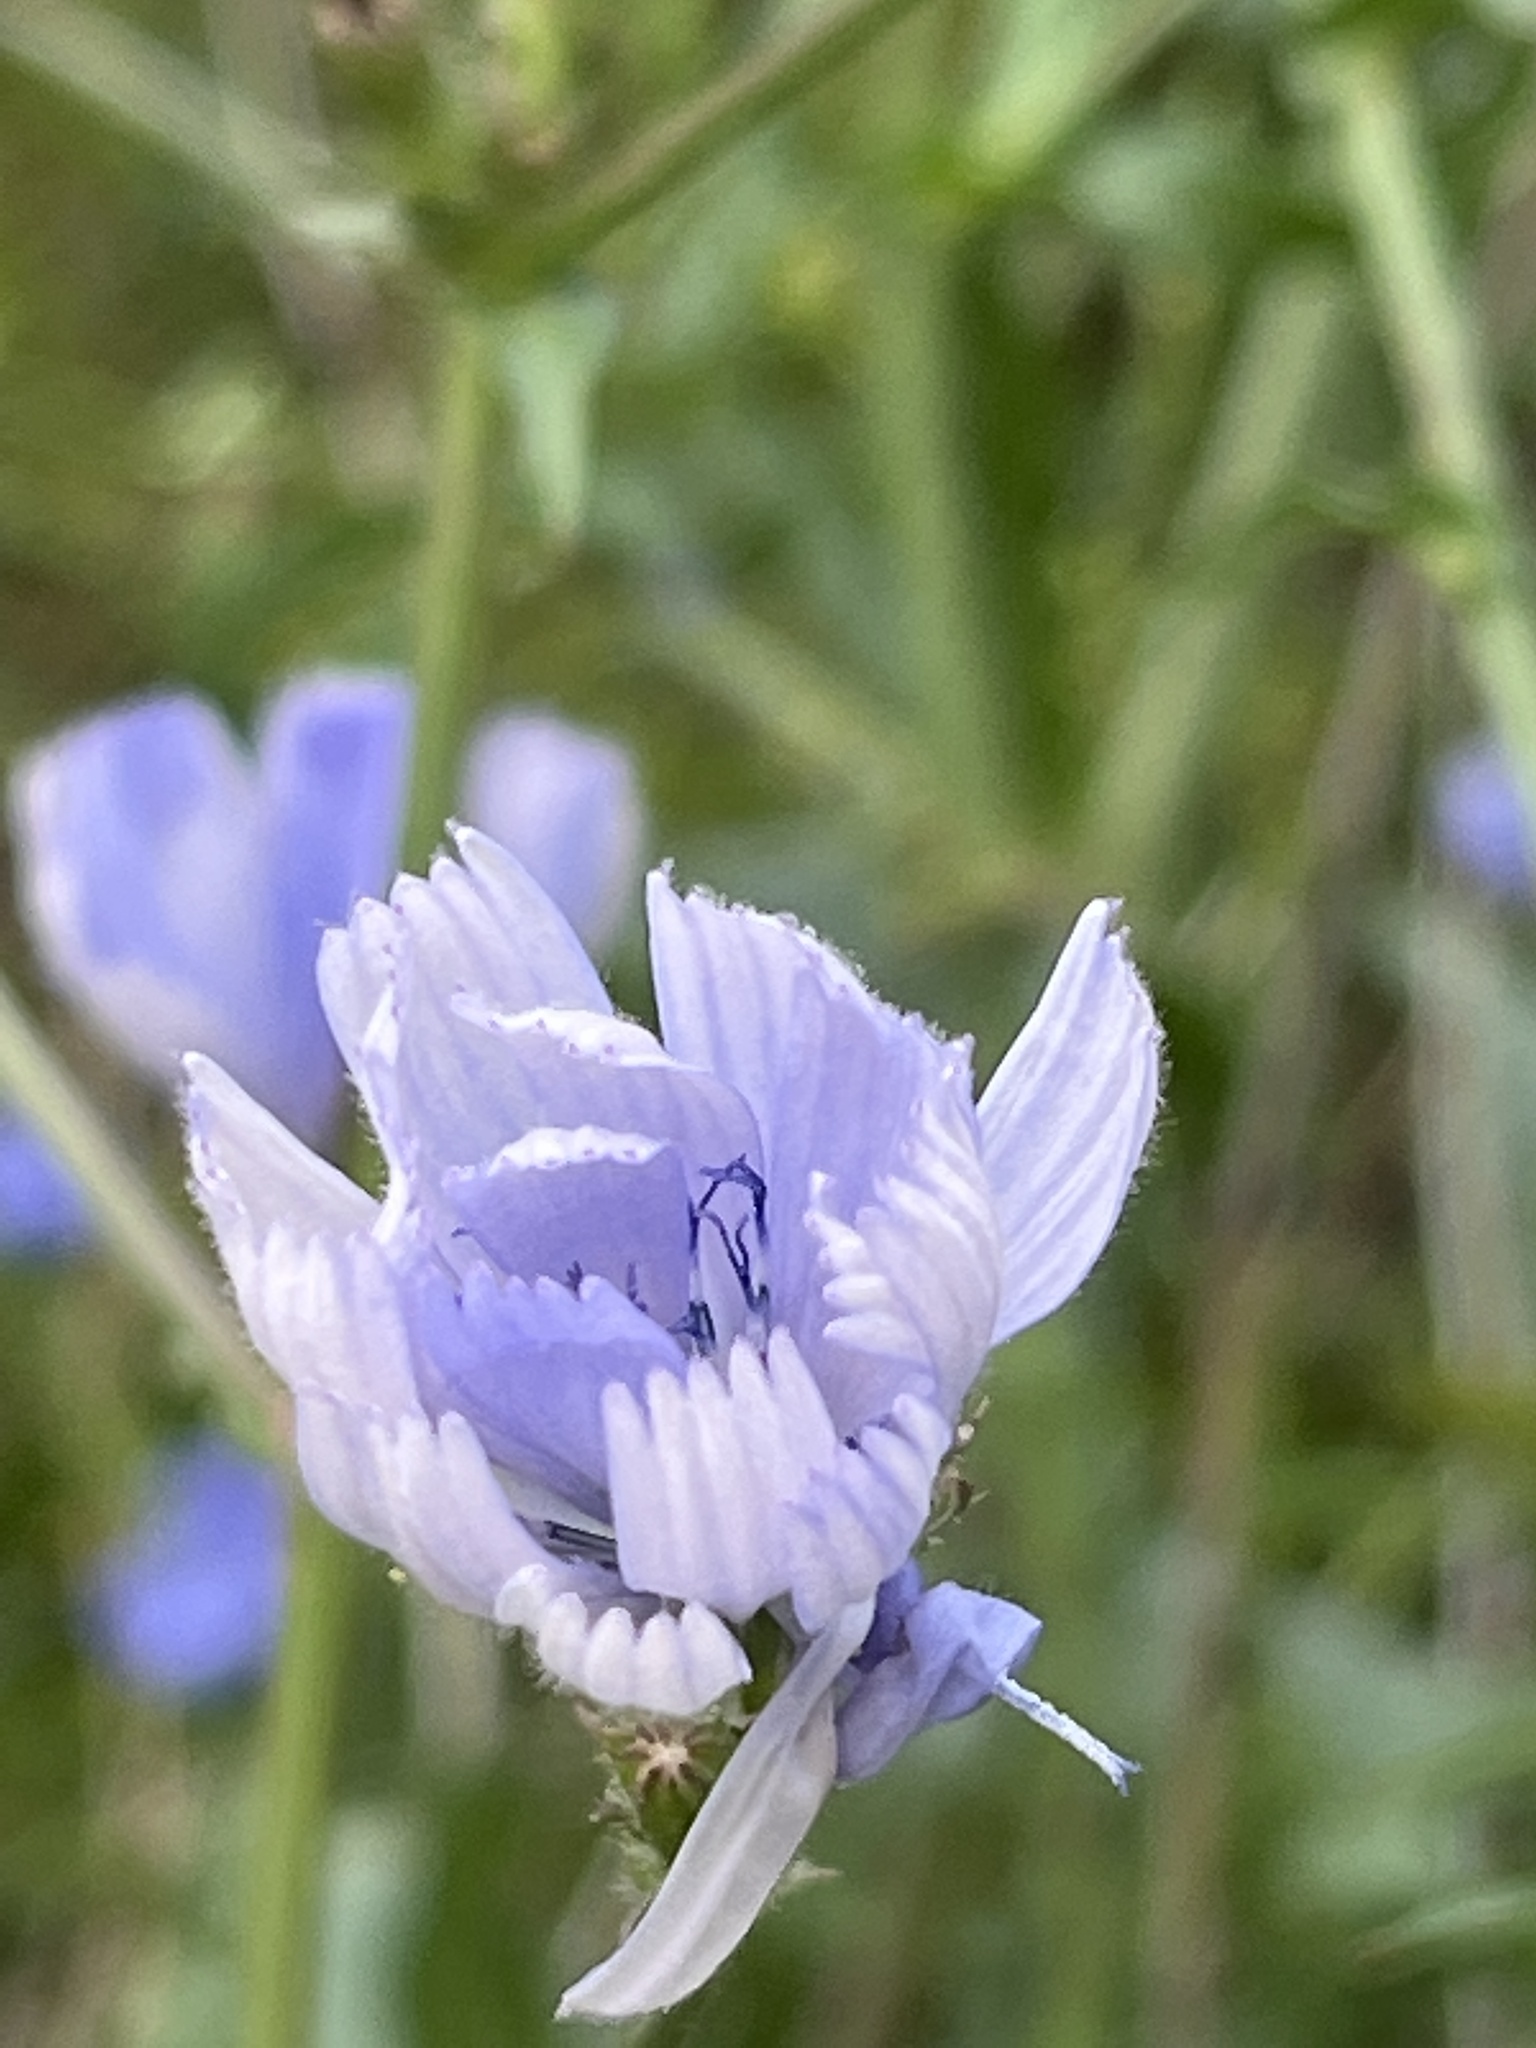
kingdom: Plantae
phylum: Tracheophyta
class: Magnoliopsida
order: Asterales
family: Asteraceae
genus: Cichorium
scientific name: Cichorium intybus
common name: Chicory
